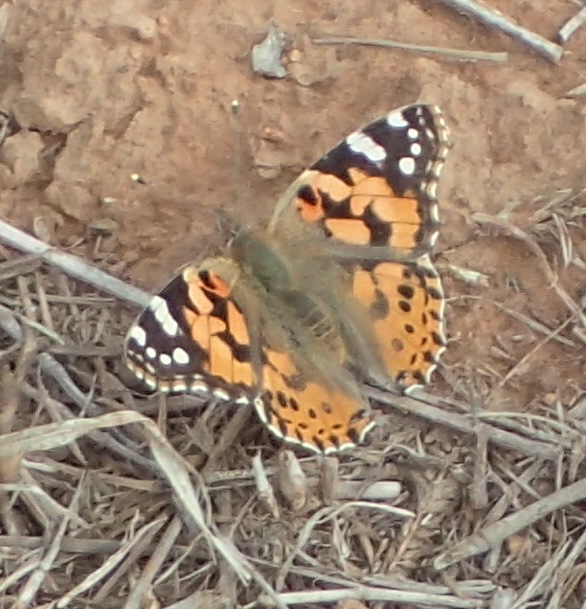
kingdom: Animalia
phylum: Arthropoda
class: Insecta
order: Lepidoptera
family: Nymphalidae
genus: Vanessa
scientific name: Vanessa cardui
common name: Painted lady
